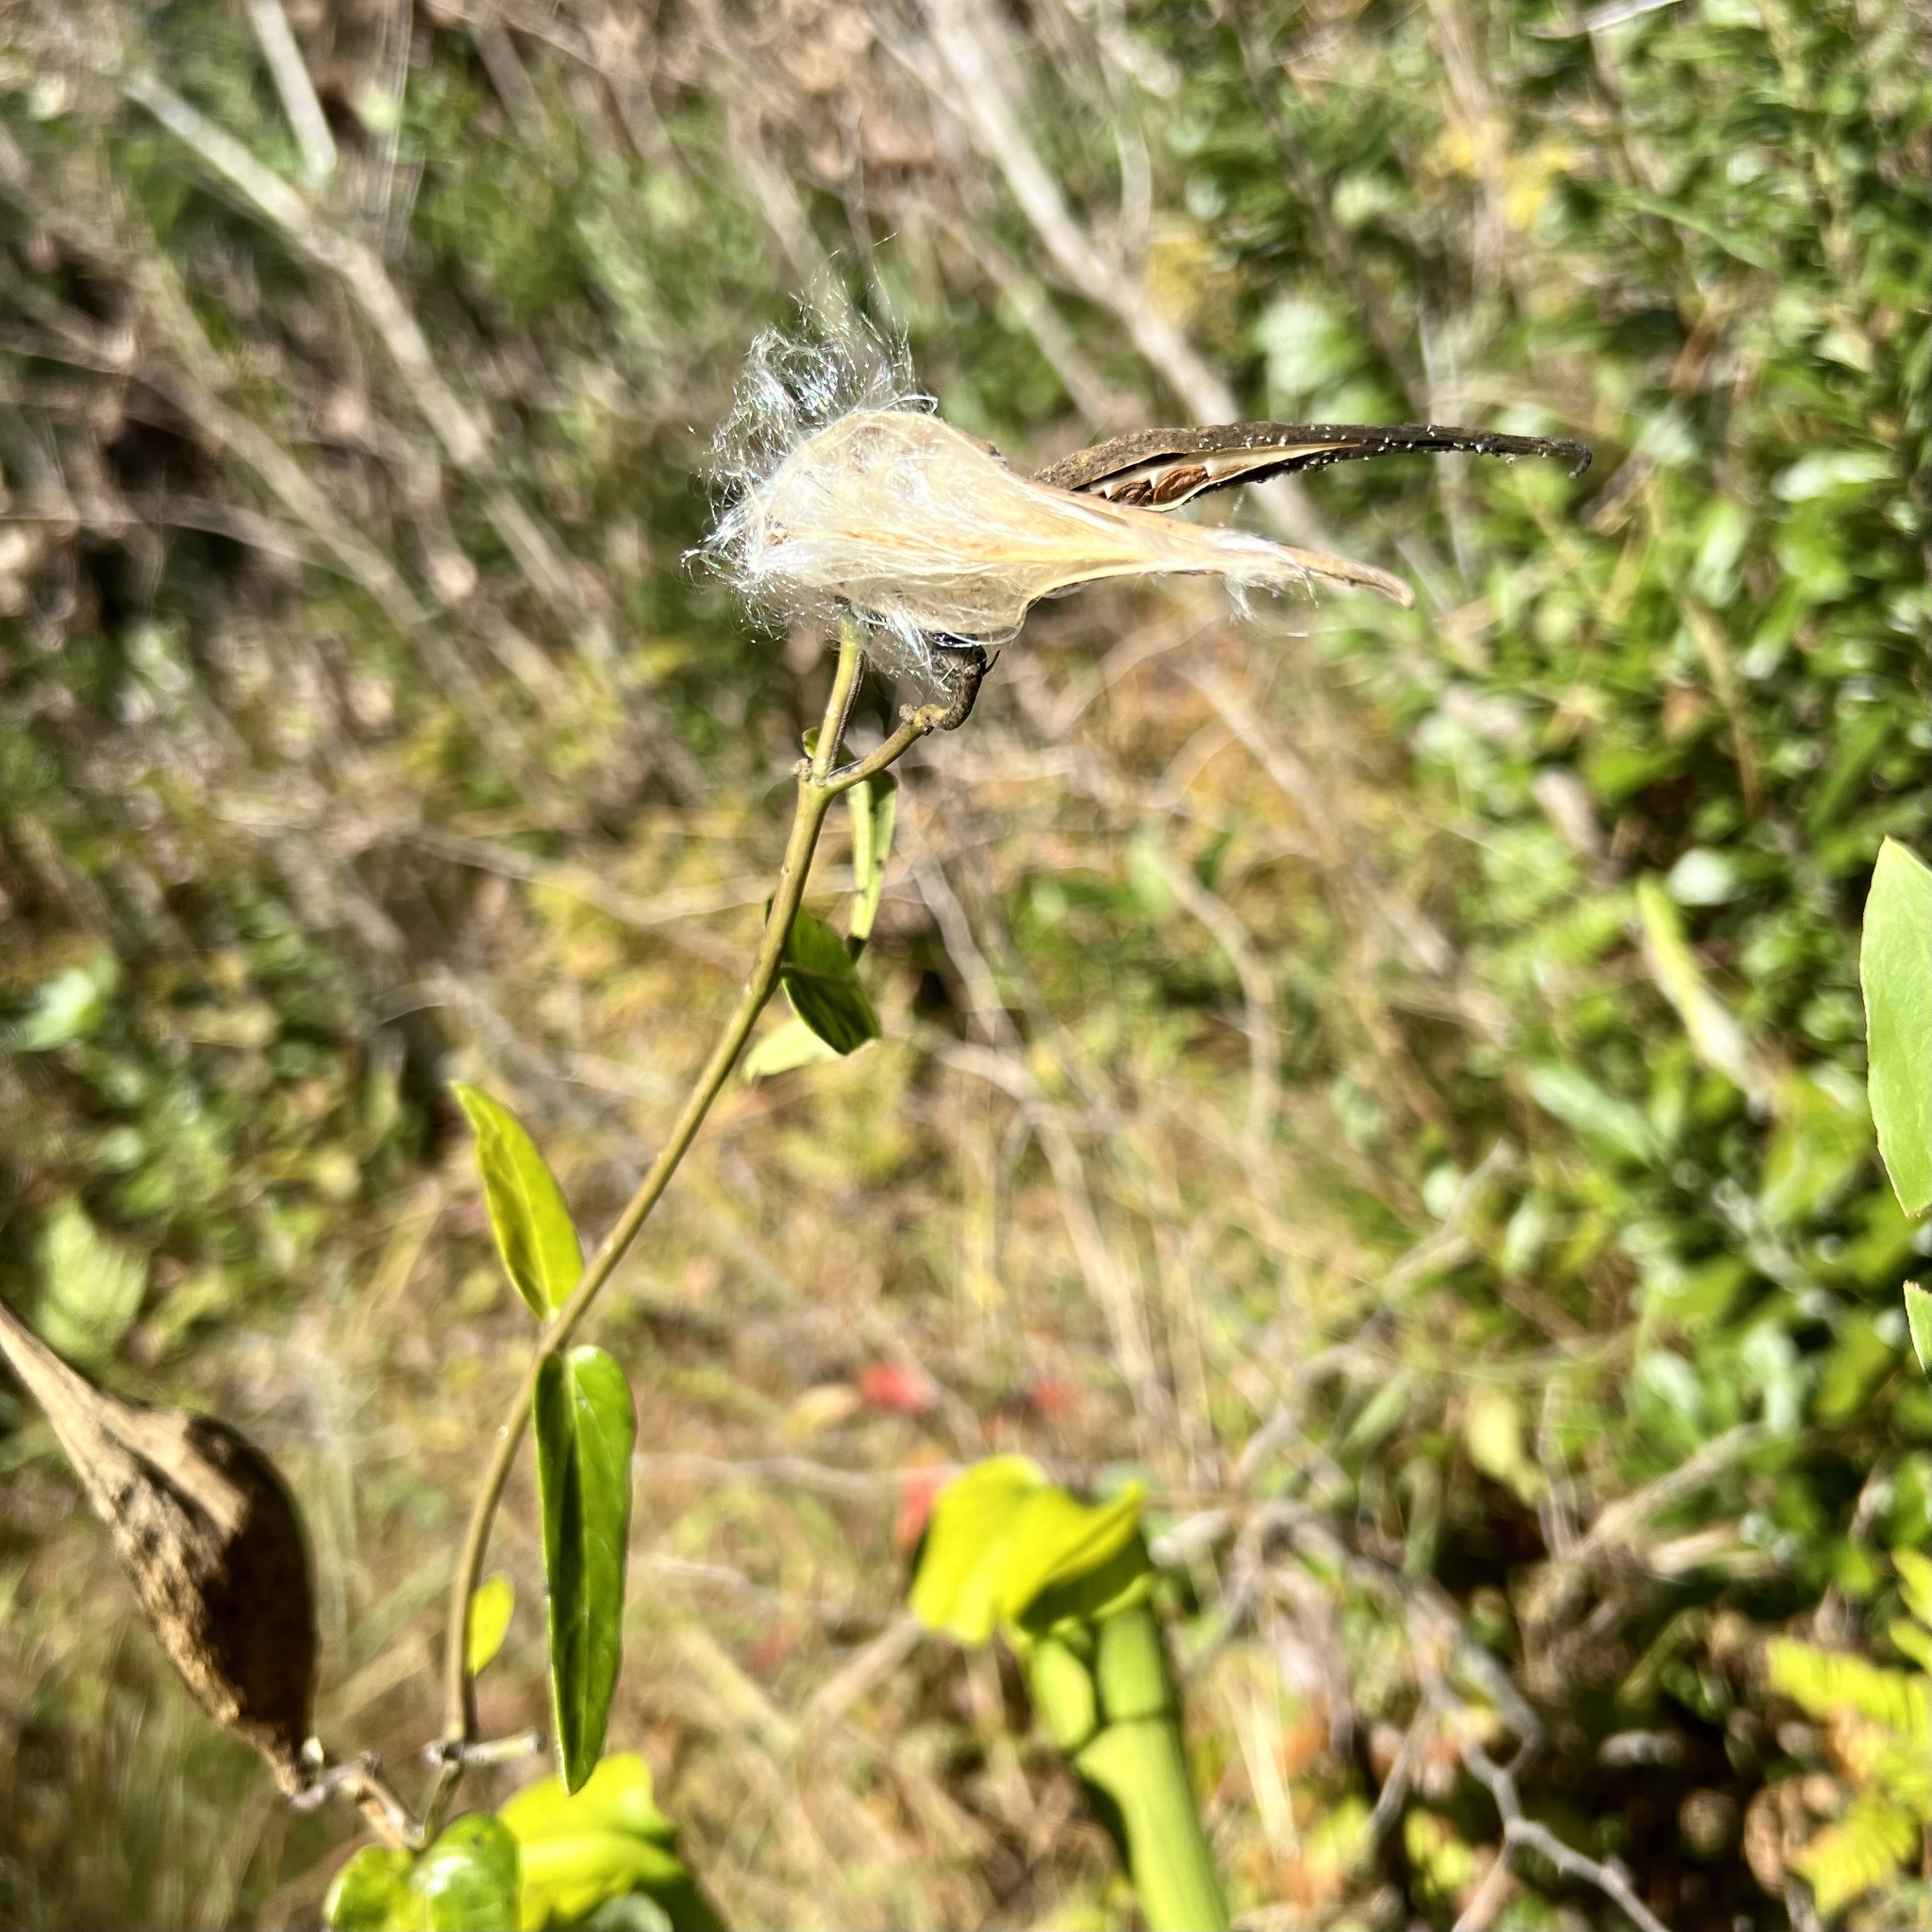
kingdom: Plantae
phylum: Tracheophyta
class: Magnoliopsida
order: Gentianales
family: Apocynaceae
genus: Asclepias
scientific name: Asclepias rubra
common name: Red milkweed
